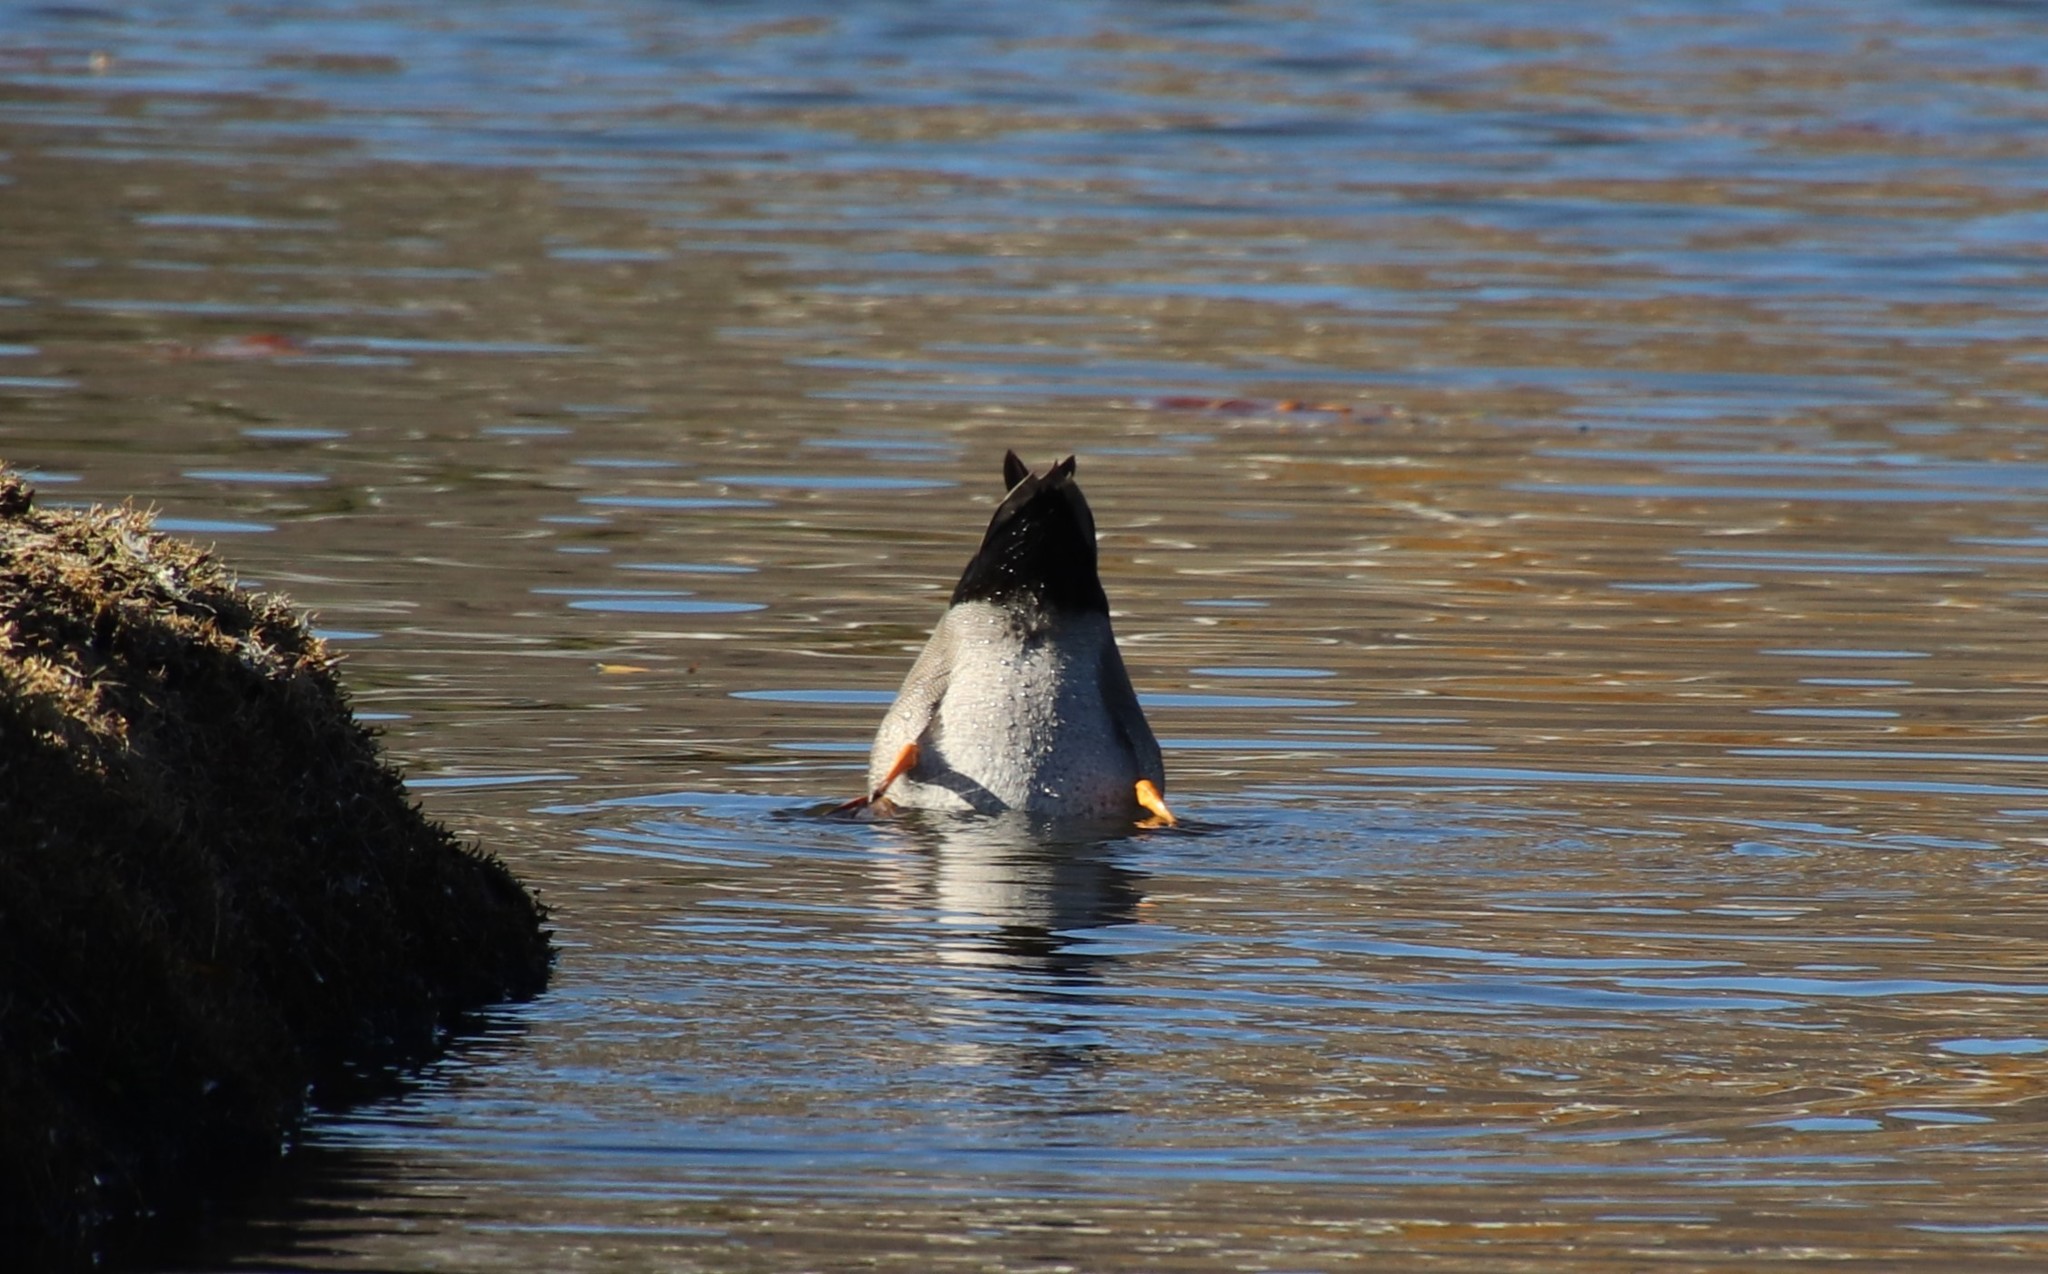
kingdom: Animalia
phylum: Chordata
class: Aves
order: Anseriformes
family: Anatidae
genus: Mareca
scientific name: Mareca strepera
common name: Gadwall
